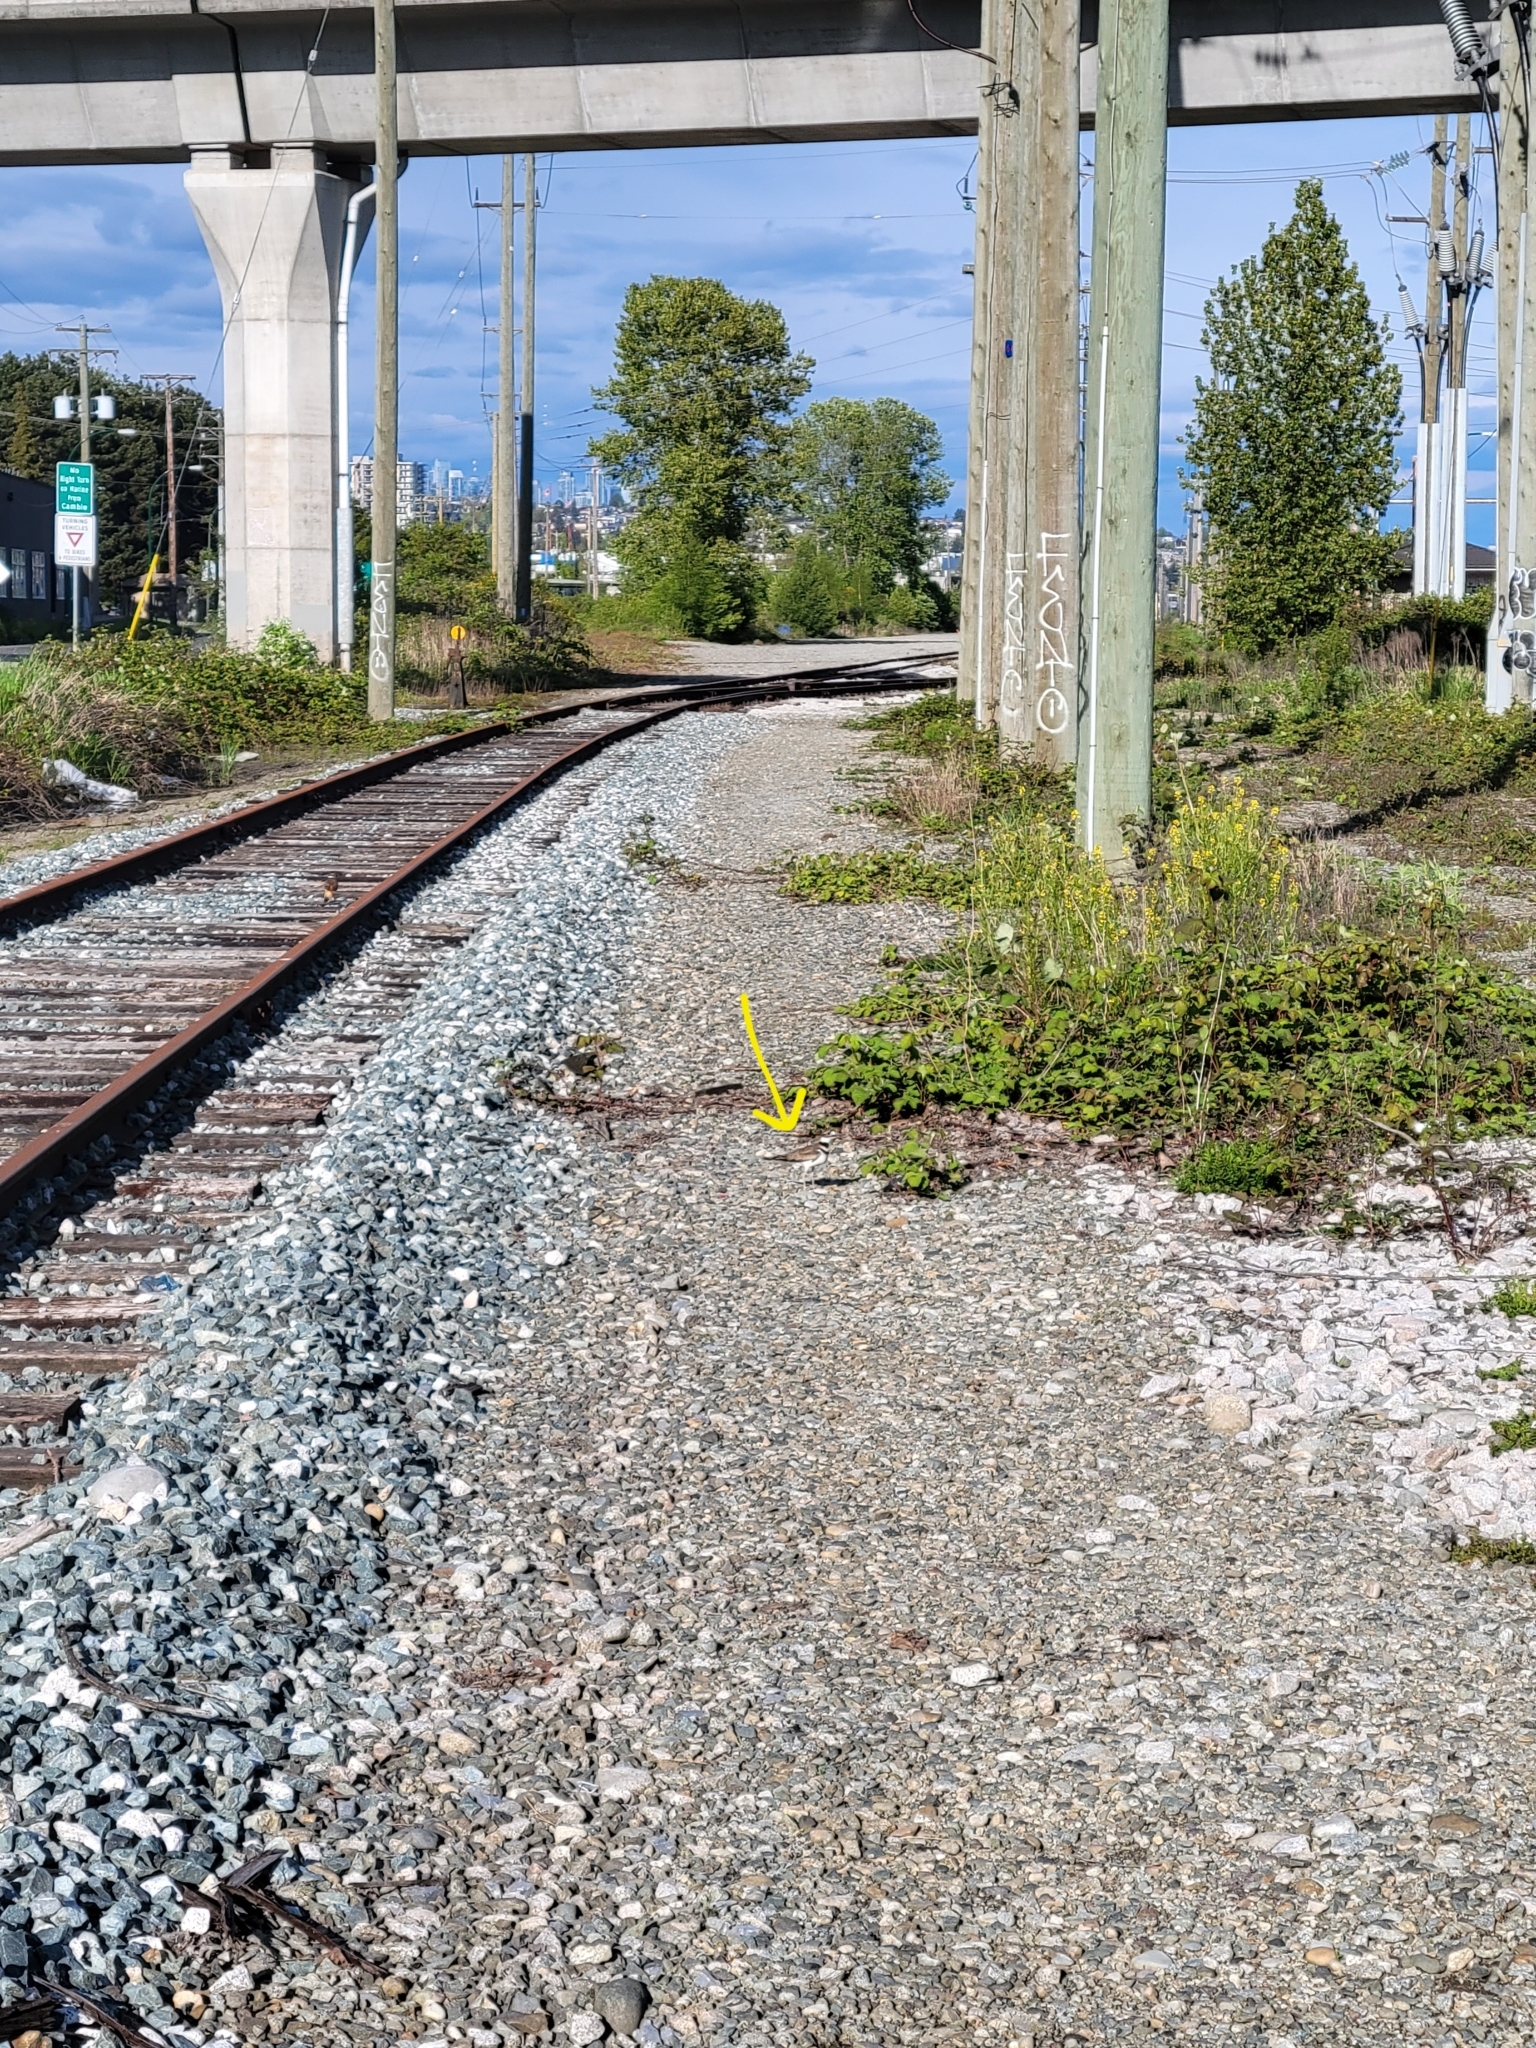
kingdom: Animalia
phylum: Chordata
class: Aves
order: Charadriiformes
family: Charadriidae
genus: Charadrius
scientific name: Charadrius vociferus
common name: Killdeer
